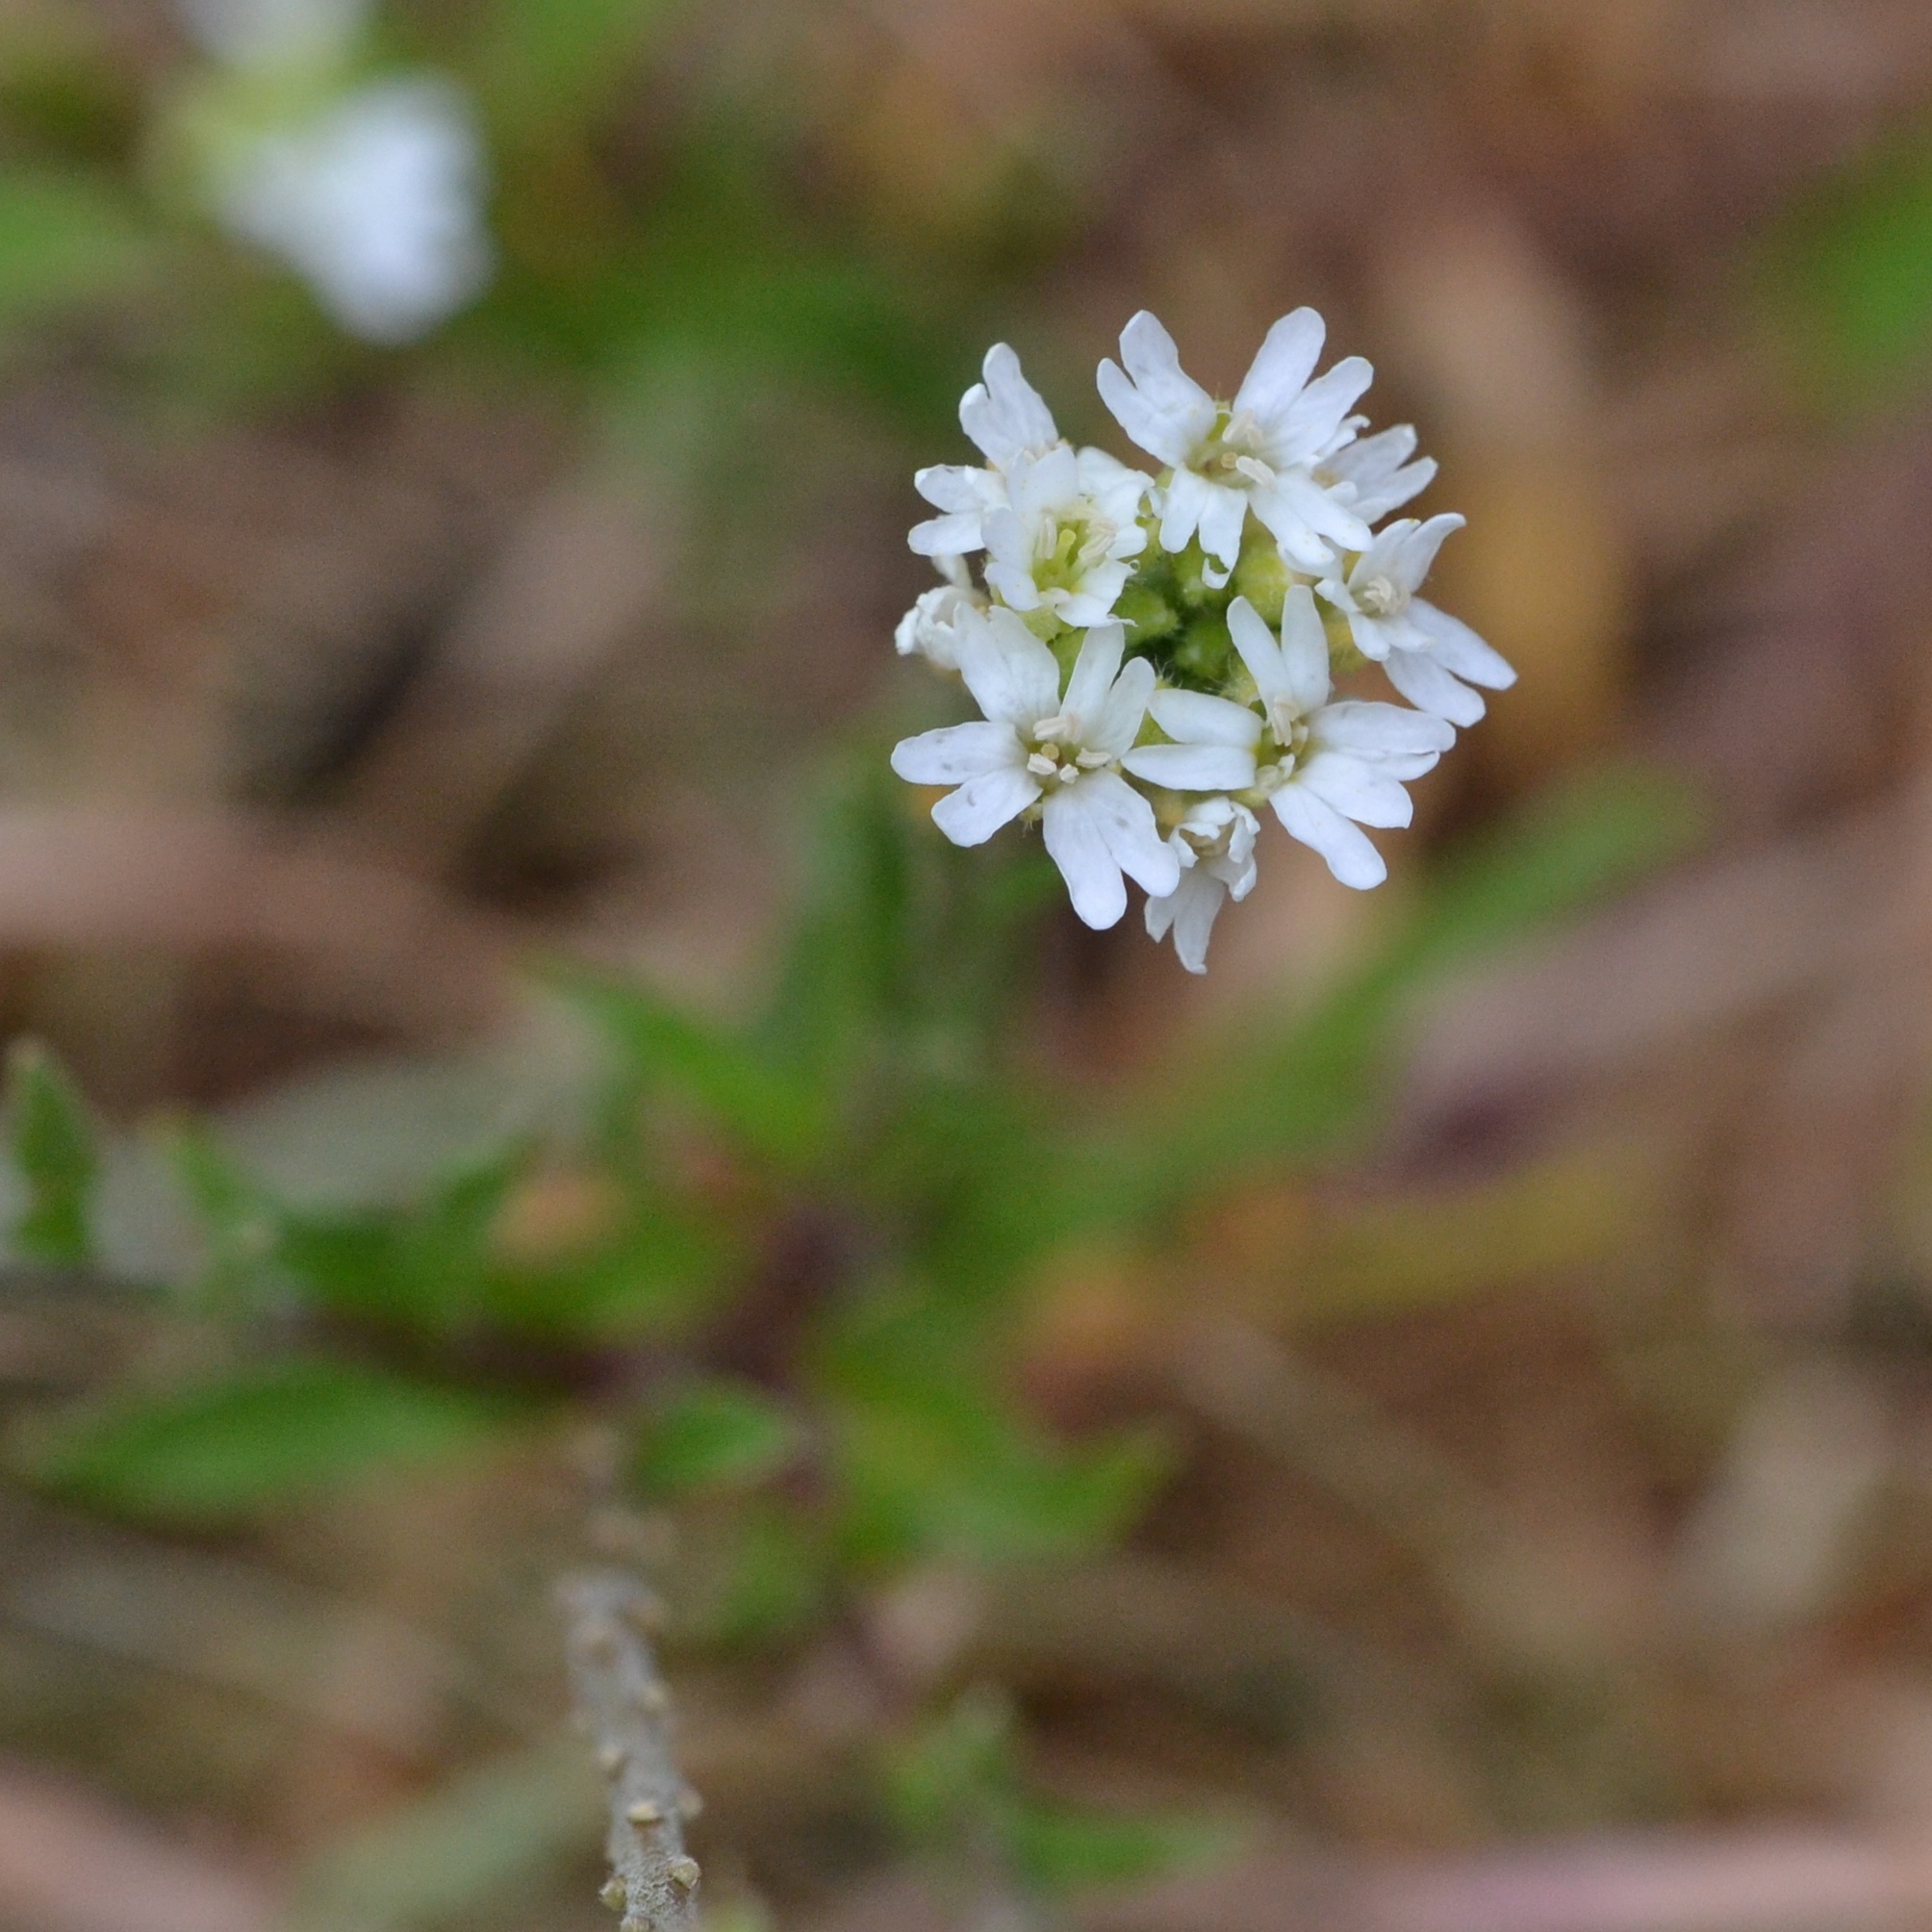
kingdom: Plantae
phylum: Tracheophyta
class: Magnoliopsida
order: Brassicales
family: Brassicaceae
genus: Berteroa
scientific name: Berteroa incana
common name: Hoary alison
